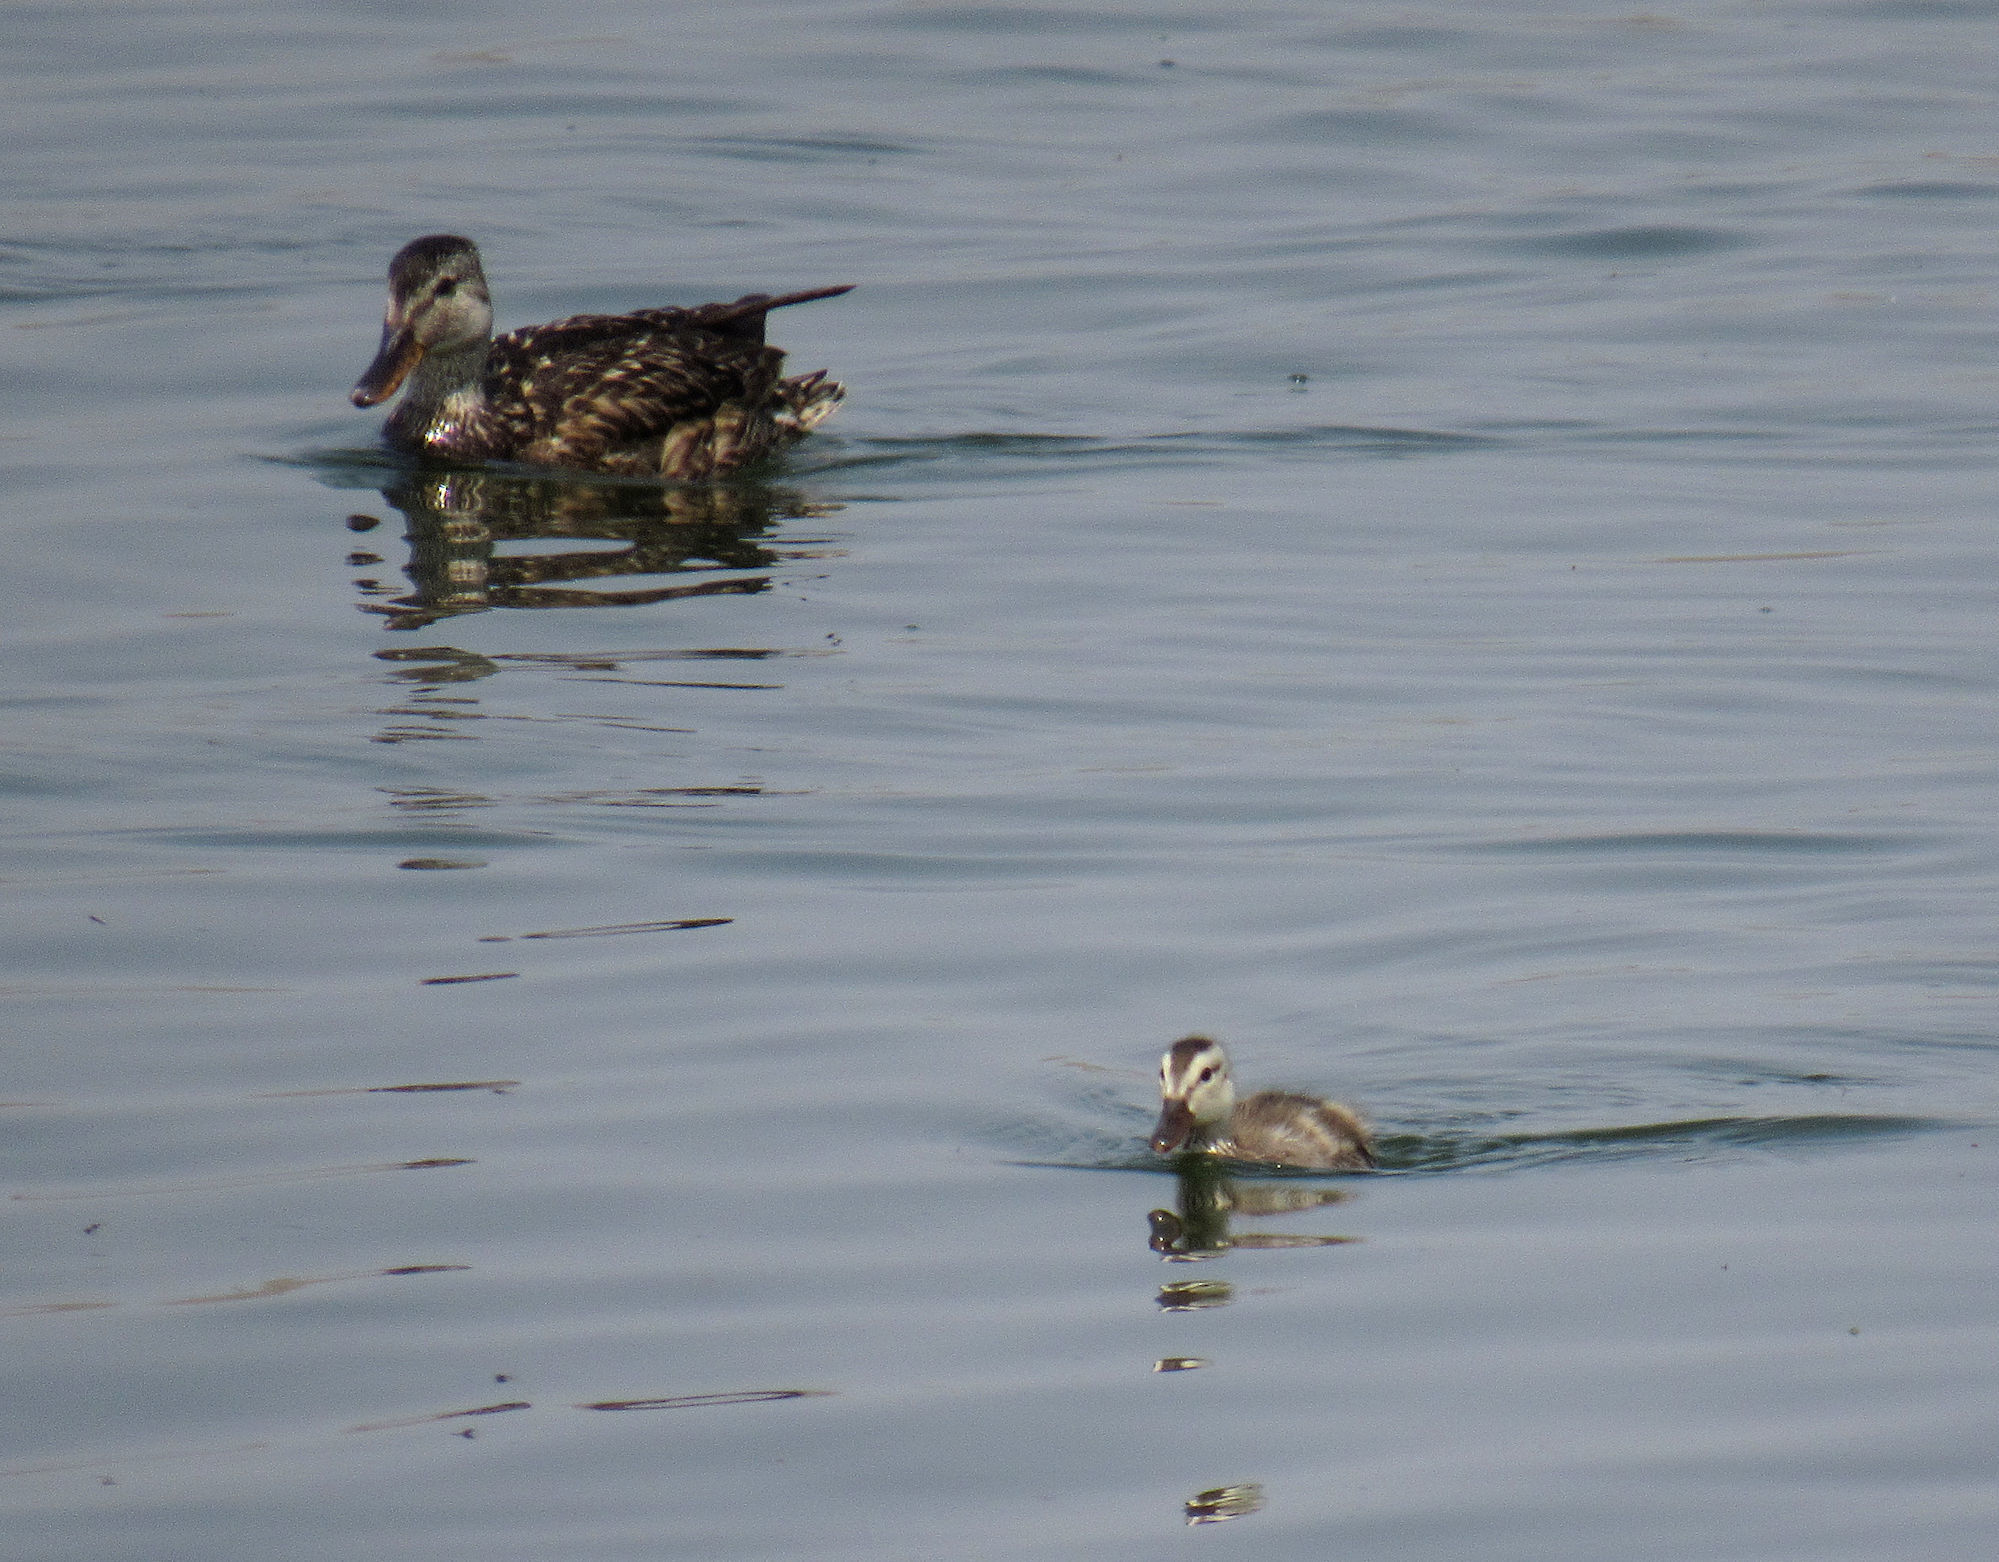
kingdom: Animalia
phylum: Chordata
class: Aves
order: Anseriformes
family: Anatidae
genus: Anas
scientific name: Anas platyrhynchos
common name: Mallard
